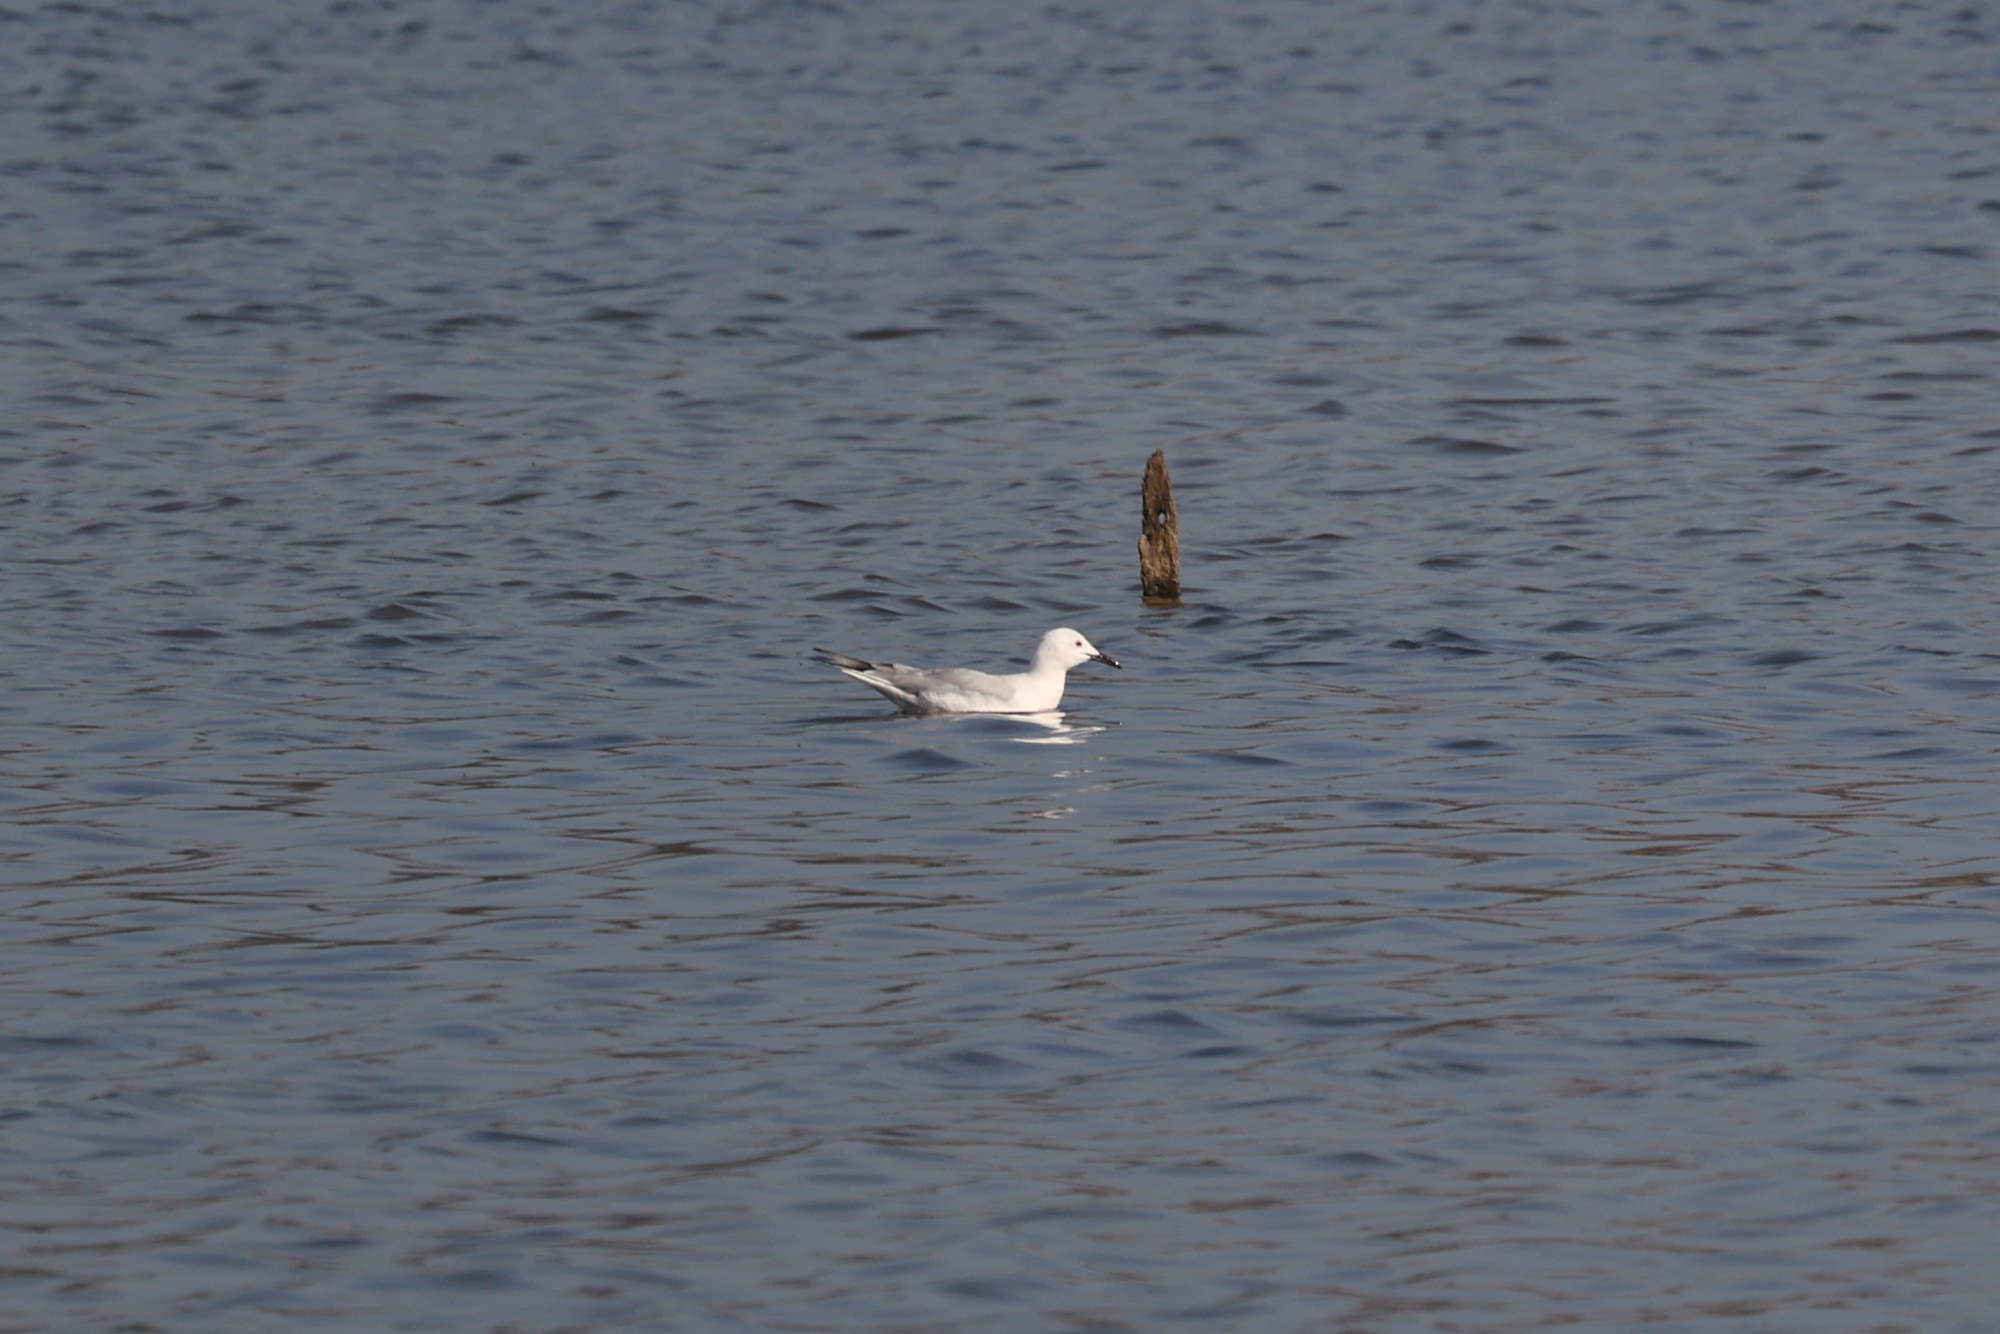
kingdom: Animalia
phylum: Chordata
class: Aves
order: Charadriiformes
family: Laridae
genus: Chroicocephalus
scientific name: Chroicocephalus genei
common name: Slender-billed gull
